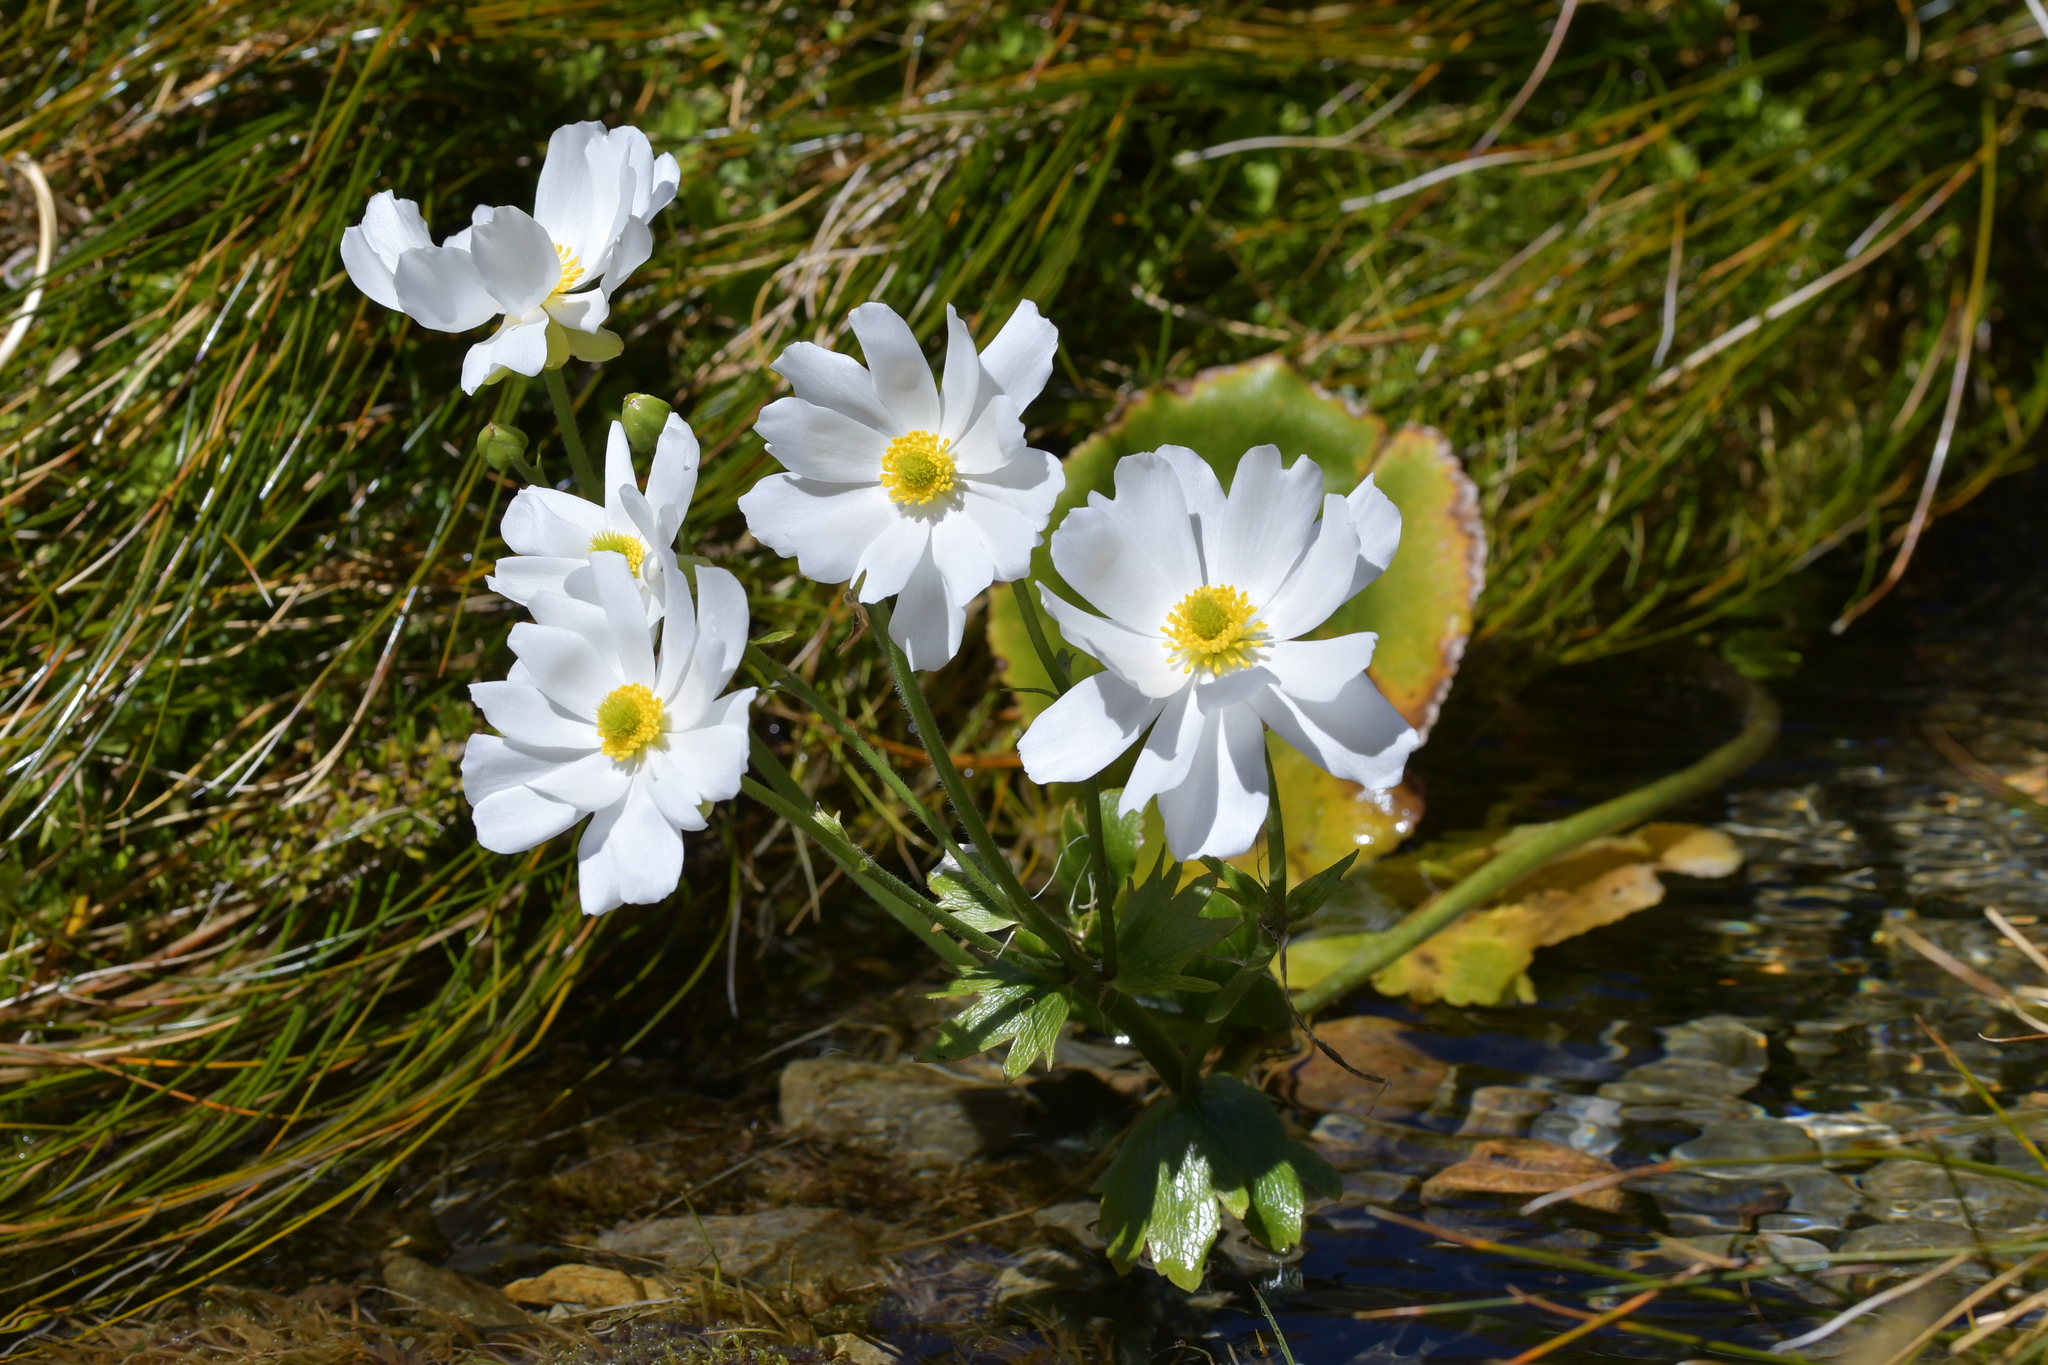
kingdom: Plantae
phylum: Tracheophyta
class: Magnoliopsida
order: Ranunculales
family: Ranunculaceae
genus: Ranunculus
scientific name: Ranunculus lyallii
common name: Mountain-lily
